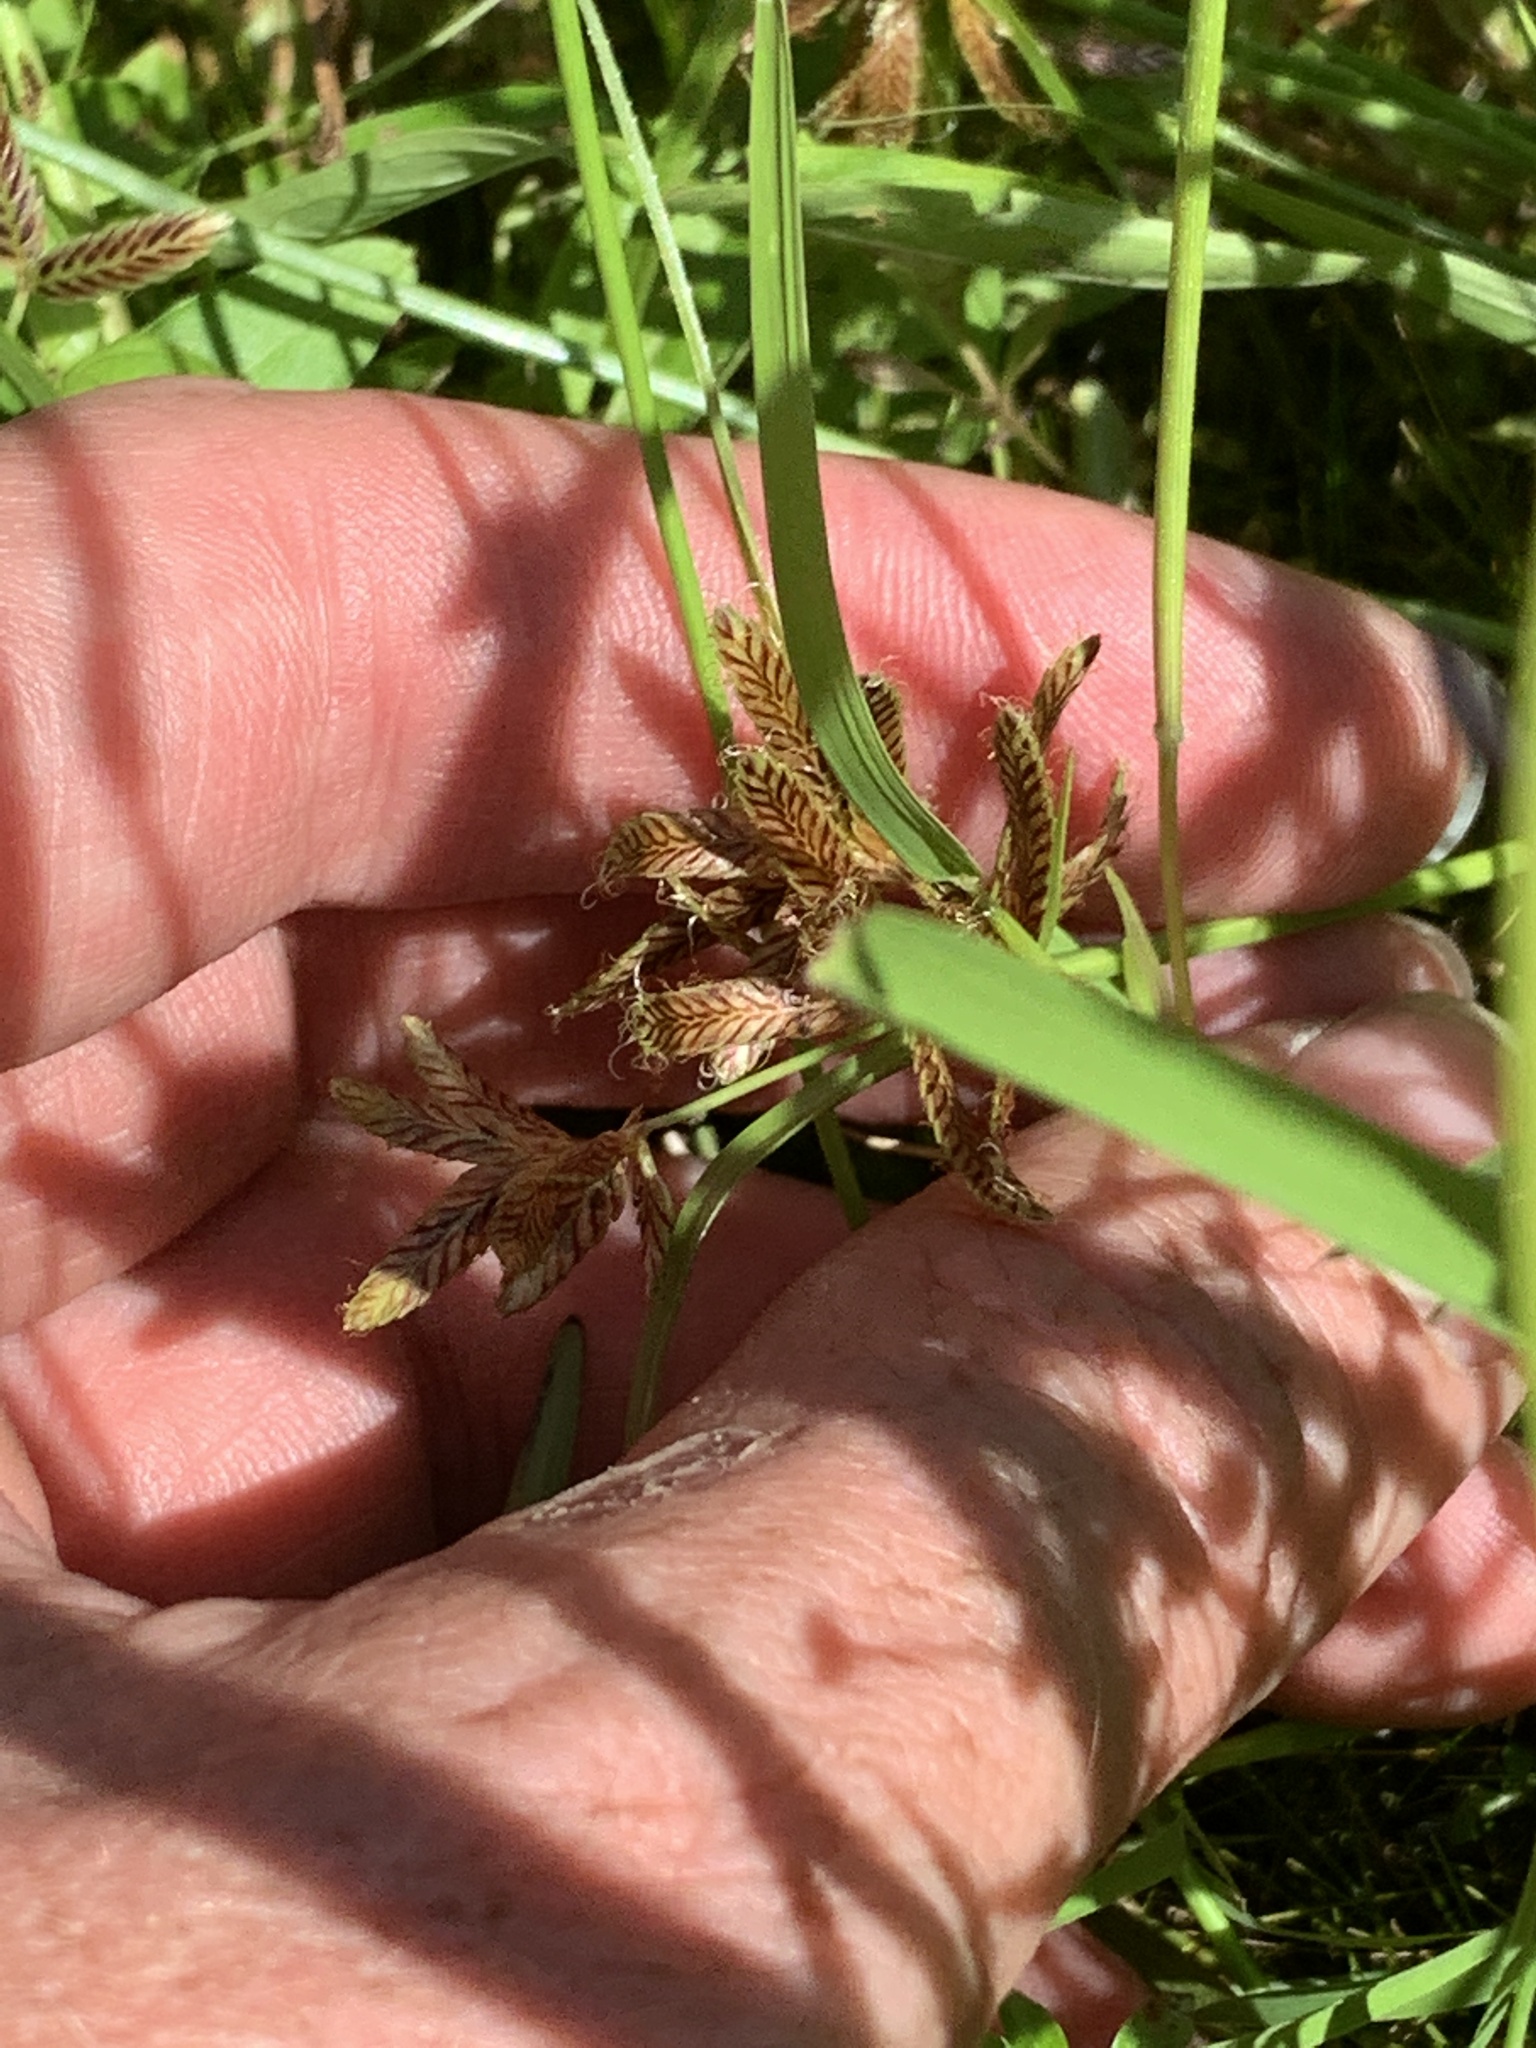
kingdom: Plantae
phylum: Tracheophyta
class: Liliopsida
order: Poales
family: Cyperaceae
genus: Cyperus
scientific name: Cyperus diandrus
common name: Low cyperus
